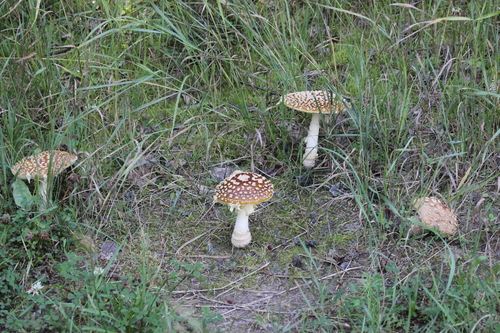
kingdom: Fungi
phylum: Basidiomycota
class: Agaricomycetes
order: Agaricales
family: Amanitaceae
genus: Amanita
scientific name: Amanita regalis
